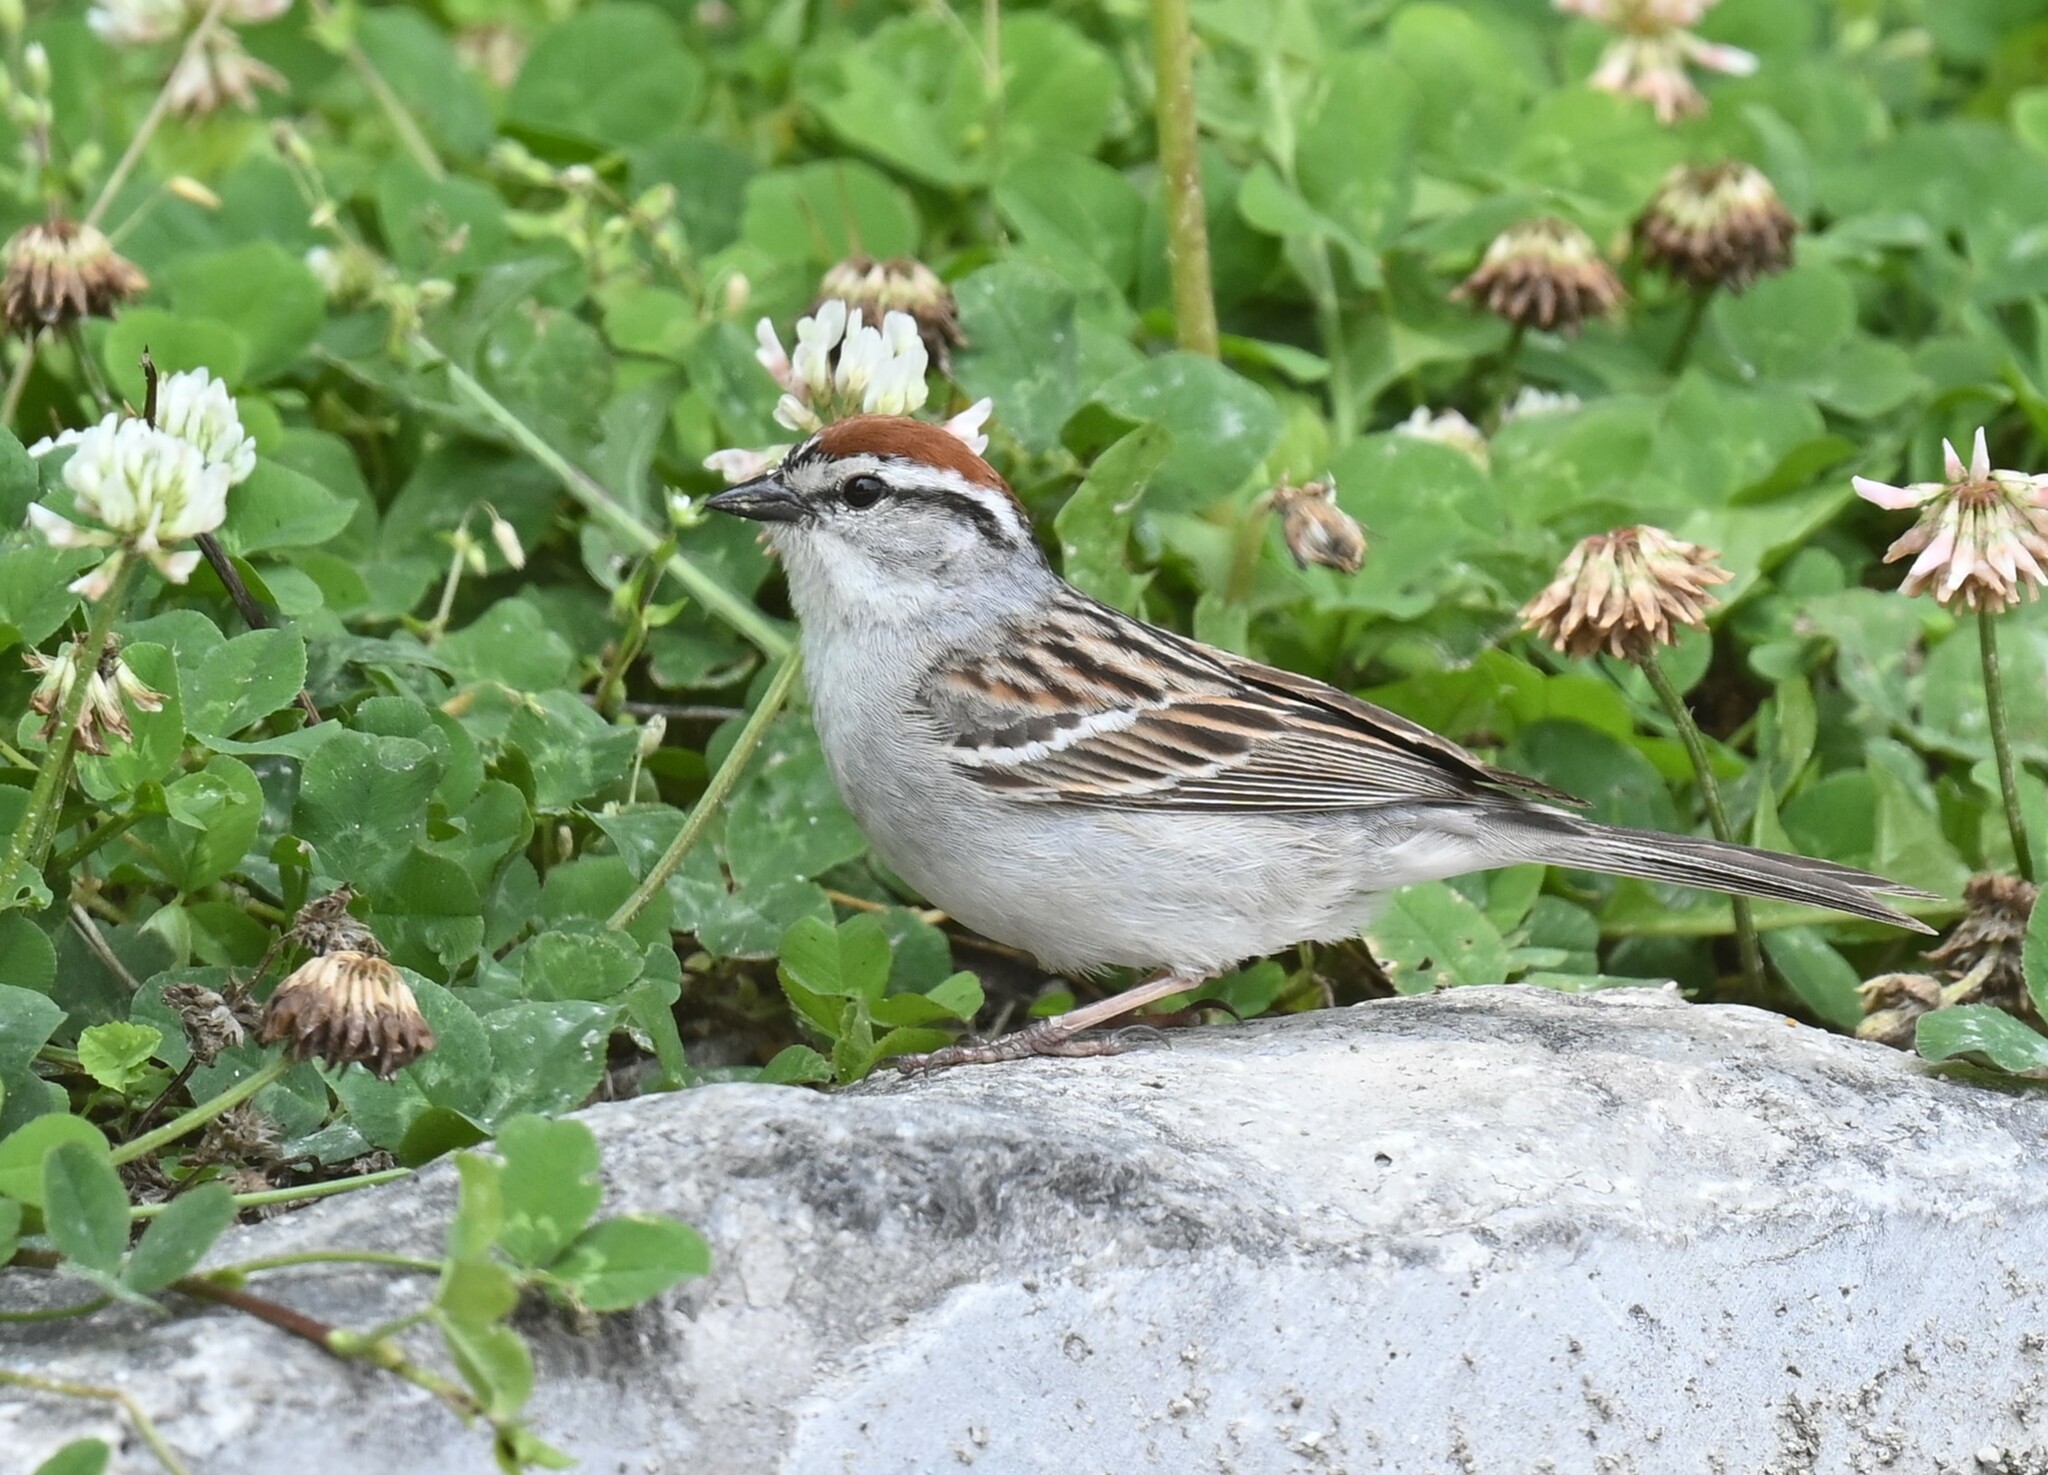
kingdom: Animalia
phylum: Chordata
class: Aves
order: Passeriformes
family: Passerellidae
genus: Spizella
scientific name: Spizella passerina
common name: Chipping sparrow
